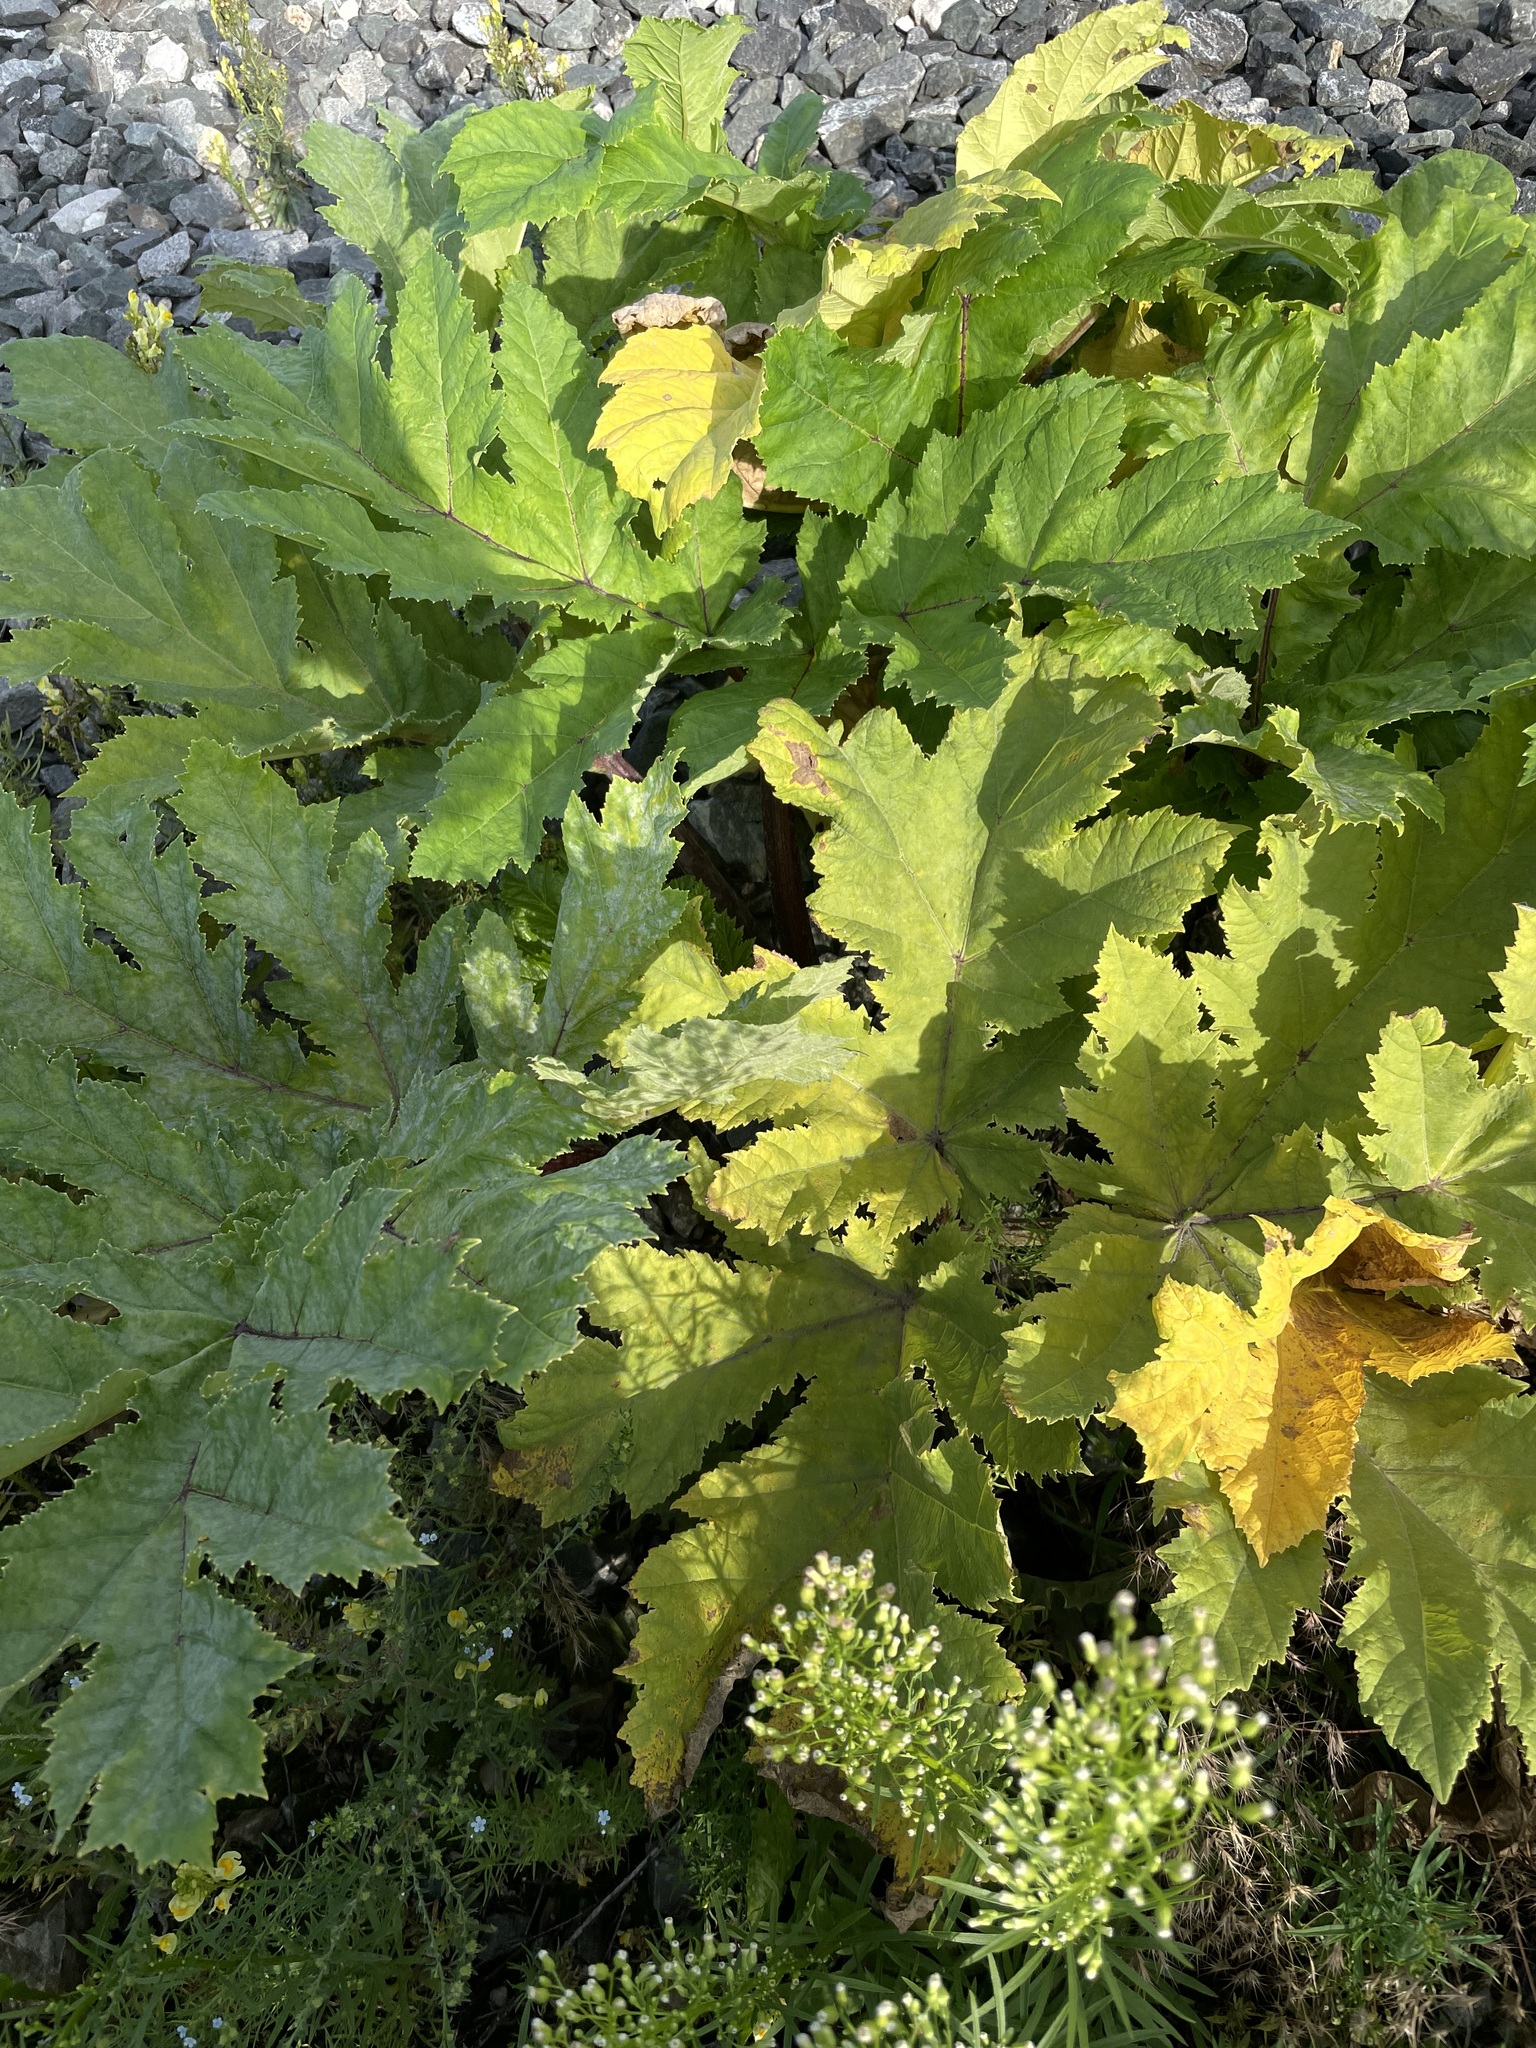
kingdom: Plantae
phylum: Tracheophyta
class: Magnoliopsida
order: Apiales
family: Apiaceae
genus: Heracleum
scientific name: Heracleum sosnowskyi
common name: Sosnowsky's hogweed
